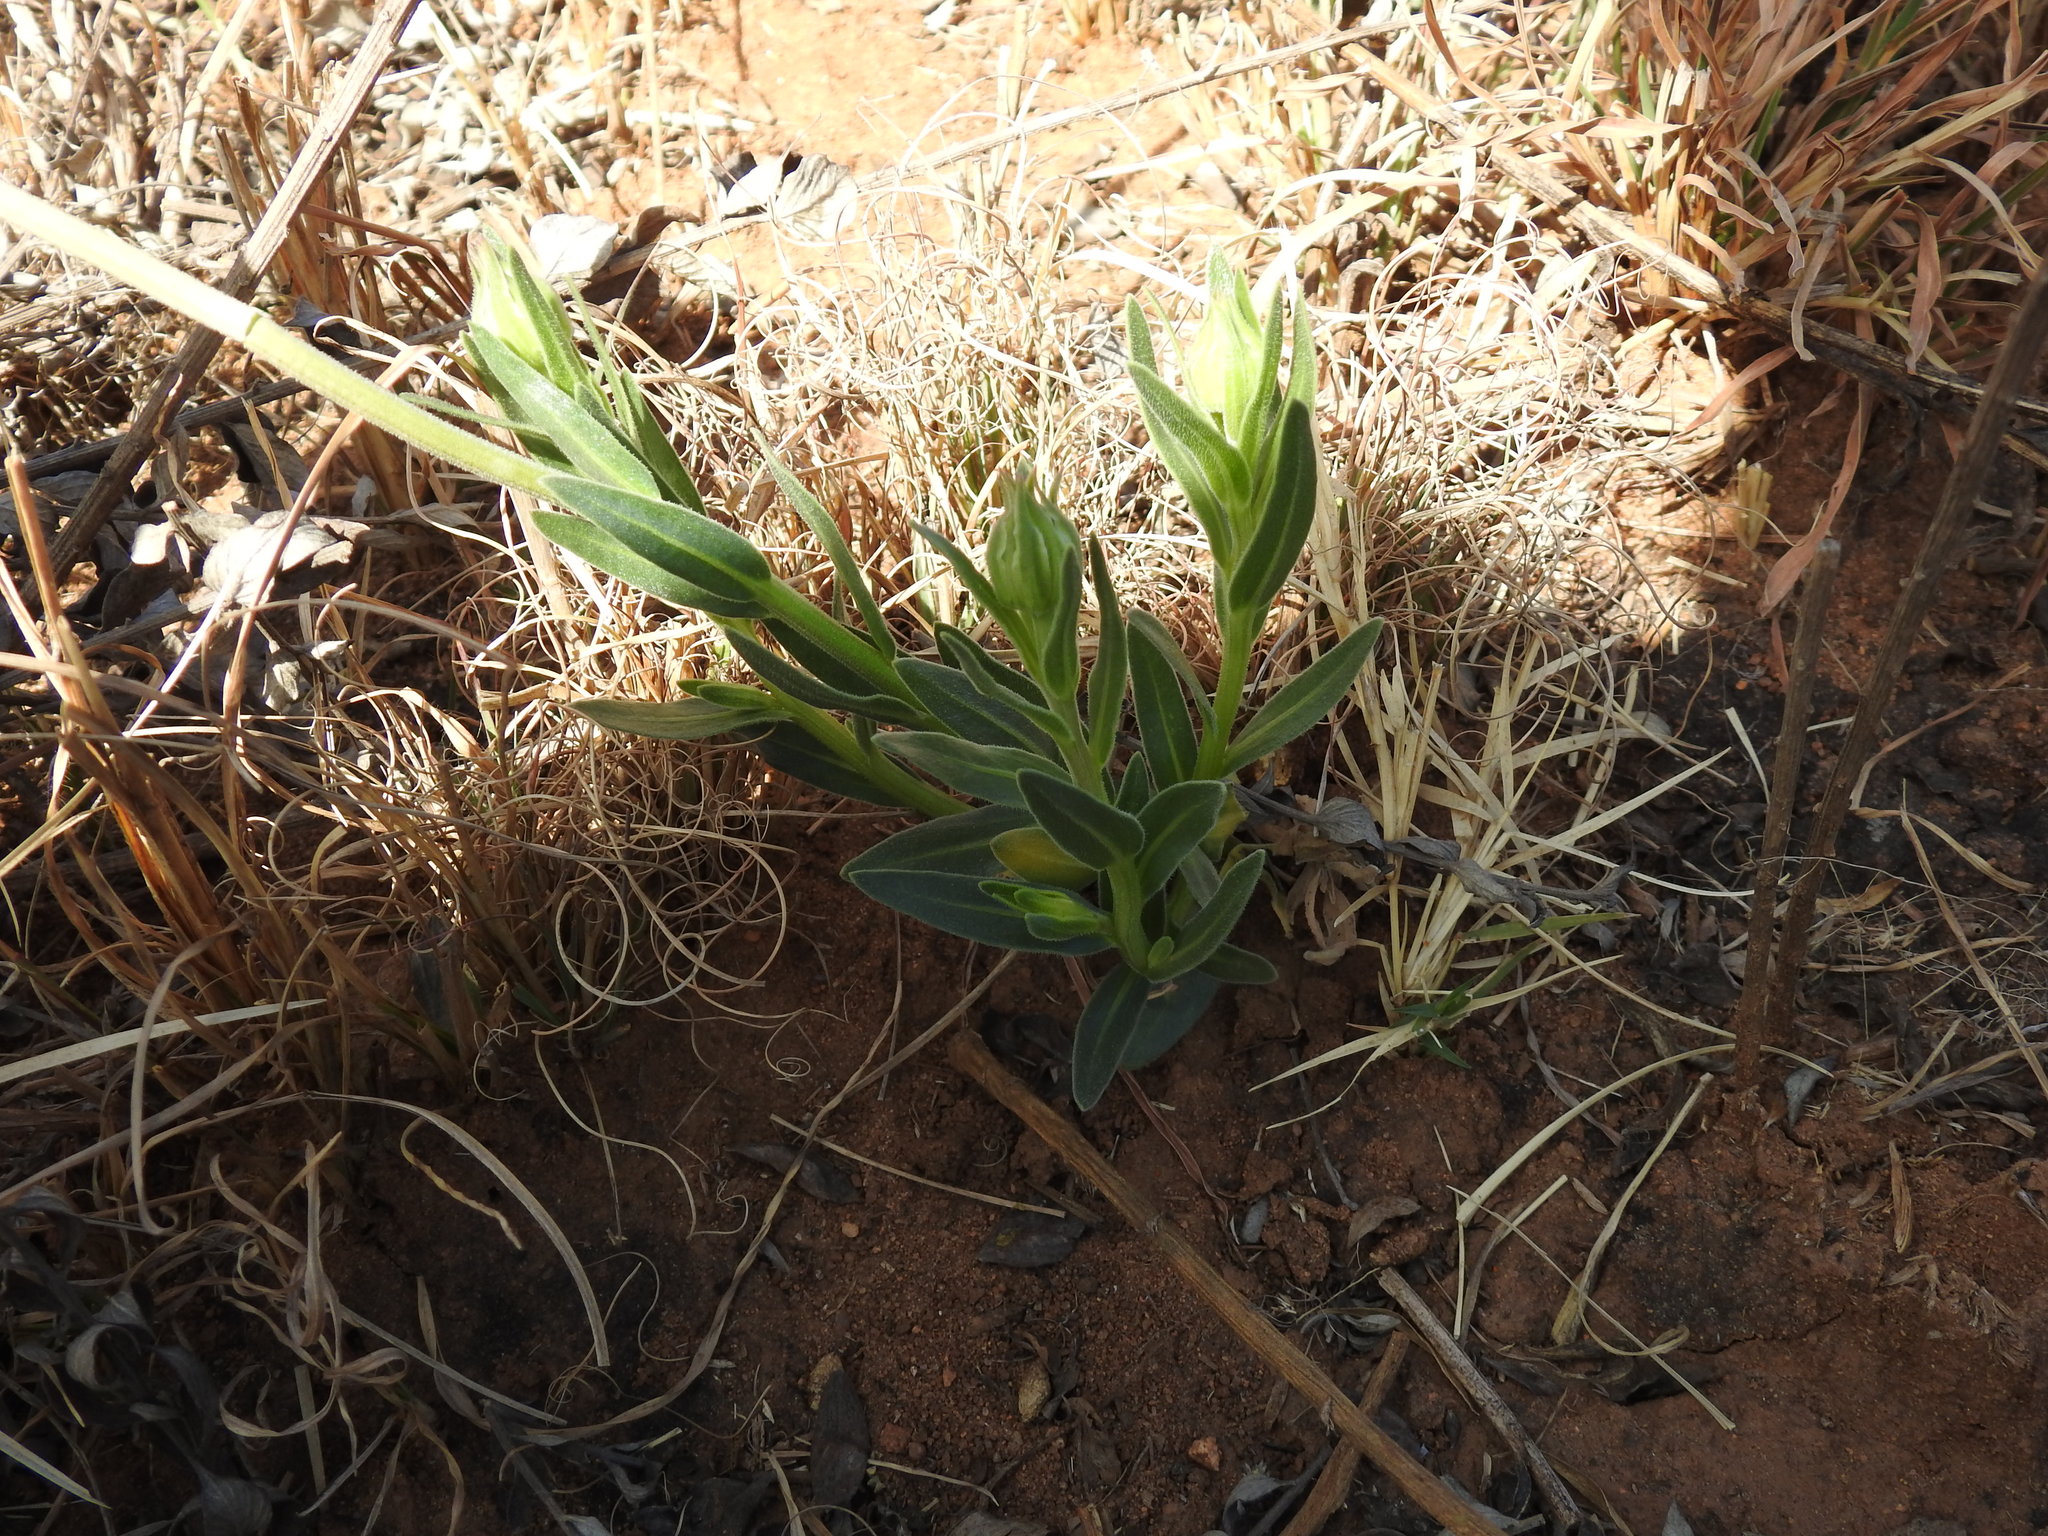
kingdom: Plantae
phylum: Tracheophyta
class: Magnoliopsida
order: Asterales
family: Asteraceae
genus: Dimorphotheca
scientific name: Dimorphotheca spectabilis
